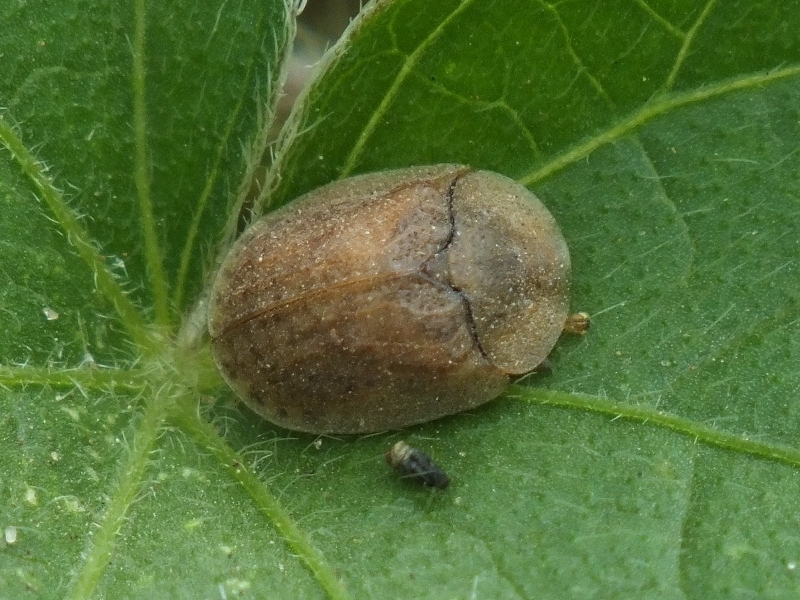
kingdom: Animalia
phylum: Arthropoda
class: Insecta
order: Coleoptera
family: Chrysomelidae
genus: Hypocassida
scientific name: Hypocassida subferruginea
